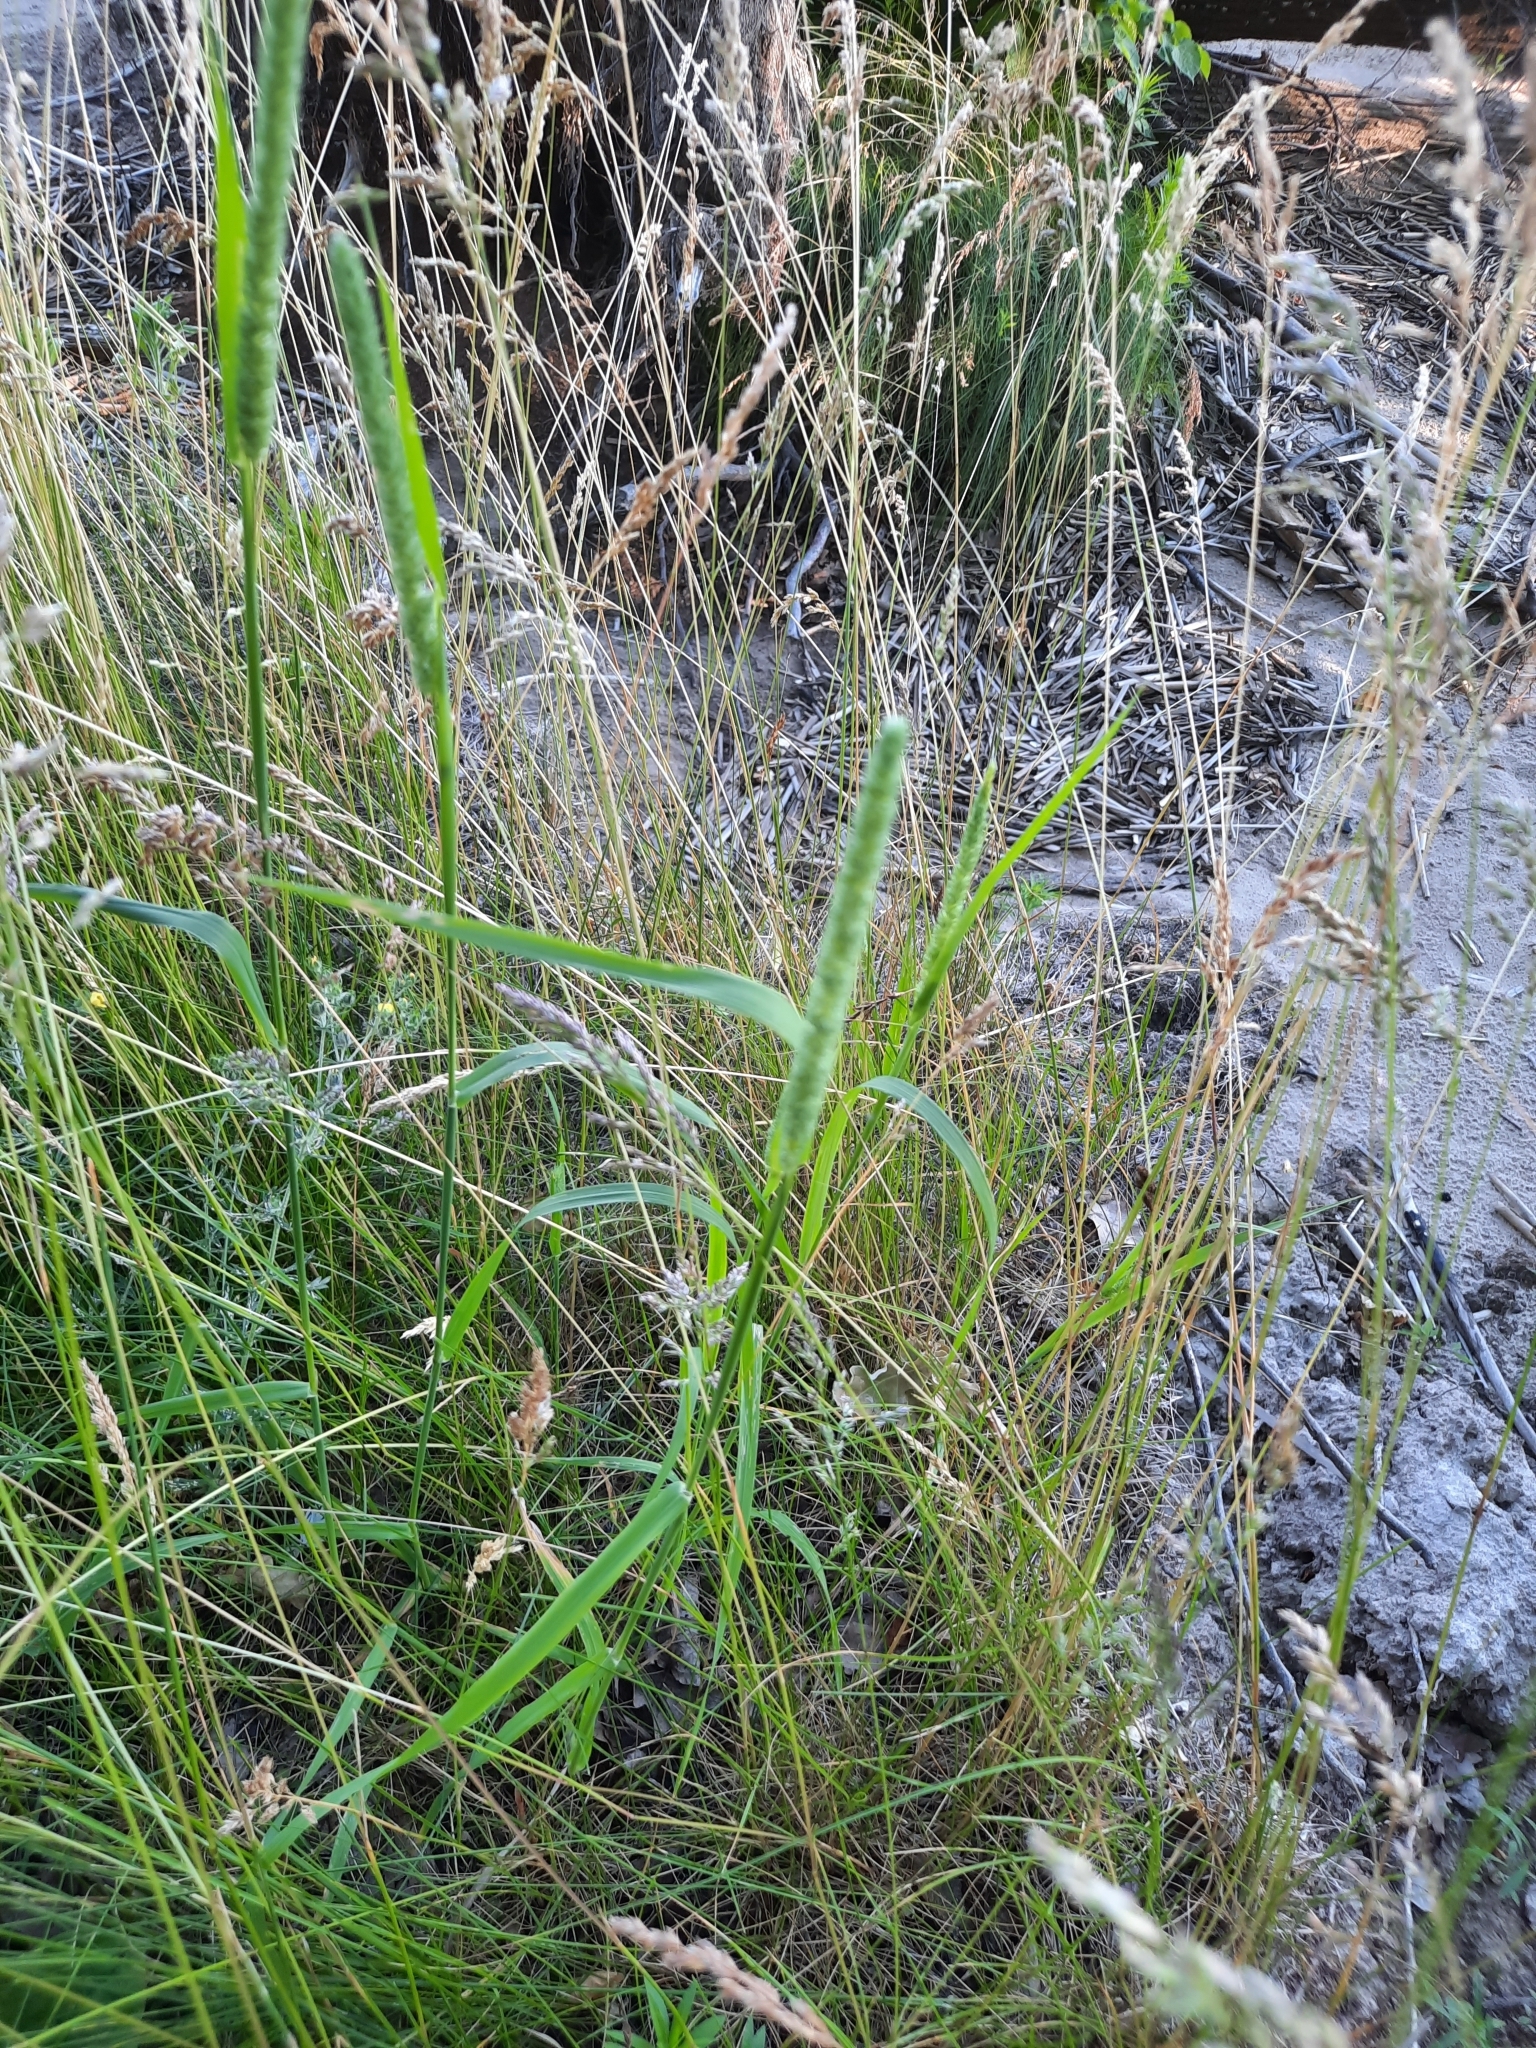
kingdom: Plantae
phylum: Tracheophyta
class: Liliopsida
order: Poales
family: Poaceae
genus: Phleum
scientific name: Phleum pratense
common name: Timothy grass
